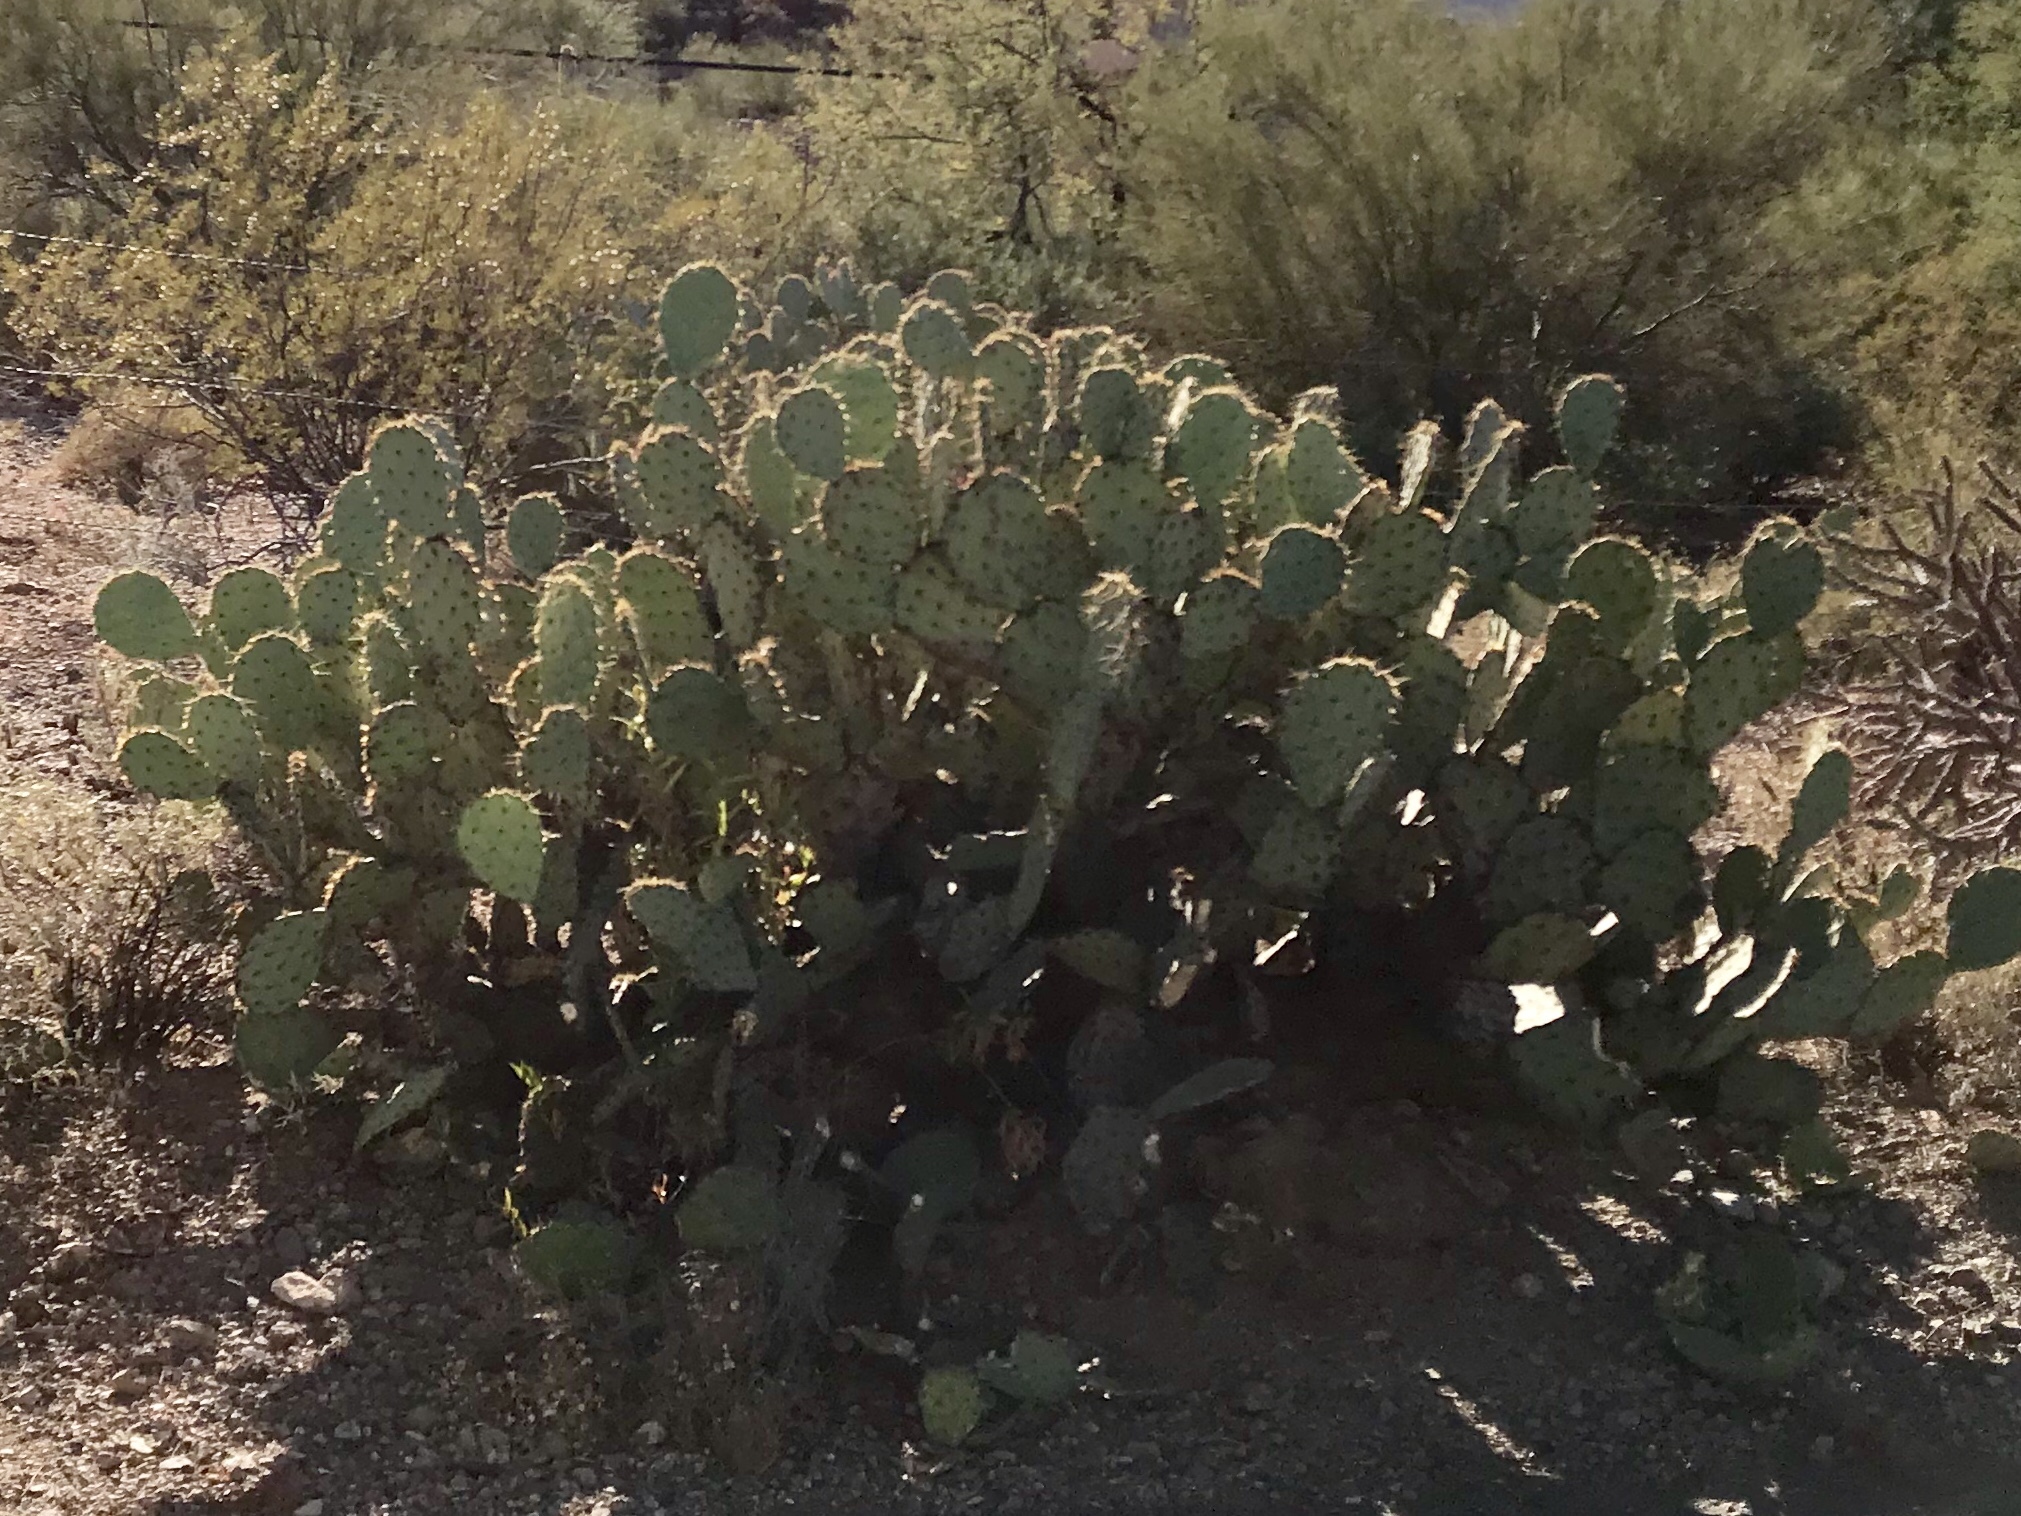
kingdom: Plantae
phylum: Tracheophyta
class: Magnoliopsida
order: Caryophyllales
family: Cactaceae
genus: Opuntia
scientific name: Opuntia engelmannii
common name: Cactus-apple
